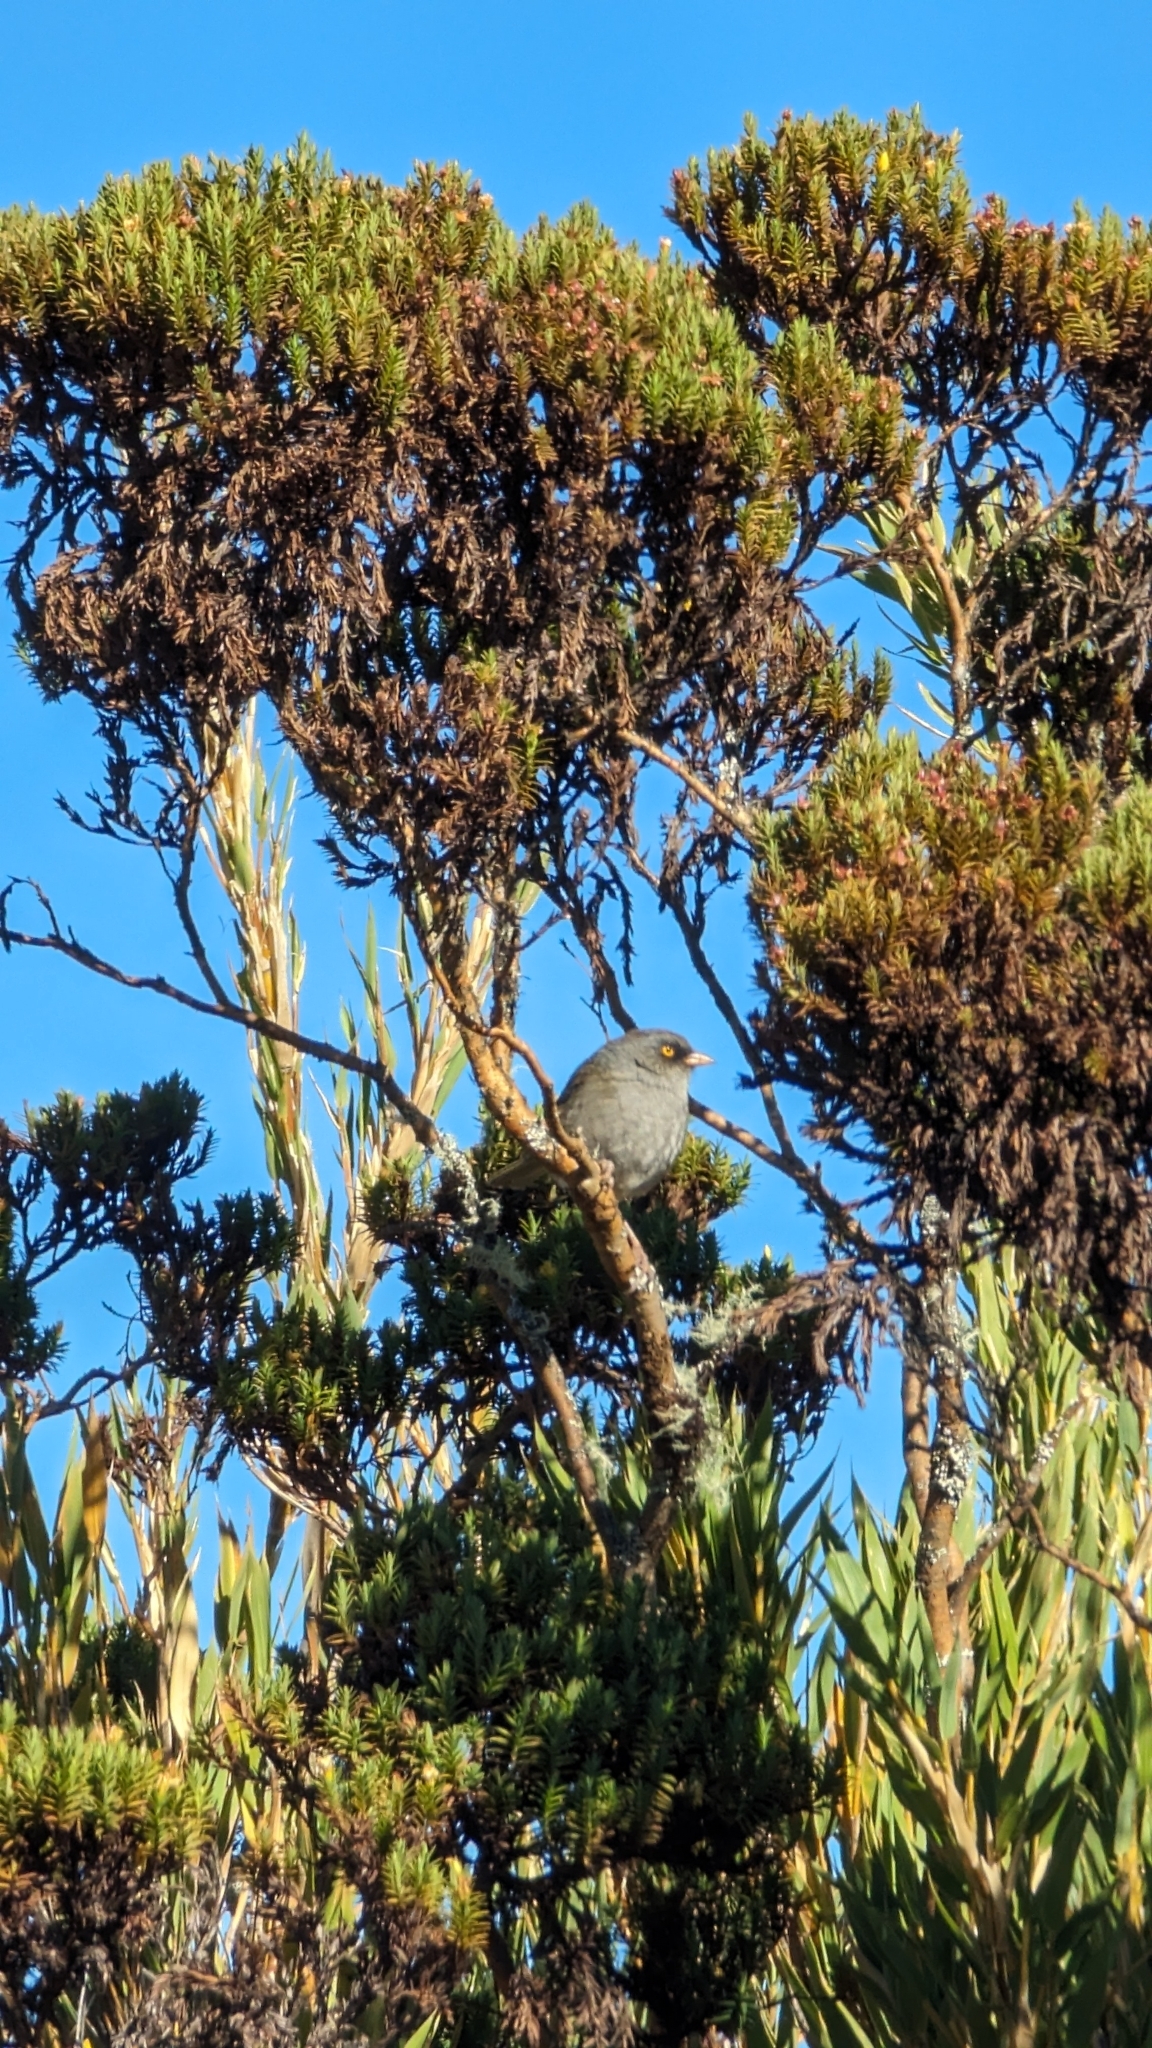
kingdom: Animalia
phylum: Chordata
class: Aves
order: Passeriformes
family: Passerellidae
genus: Junco
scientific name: Junco vulcani
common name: Volcano junco
